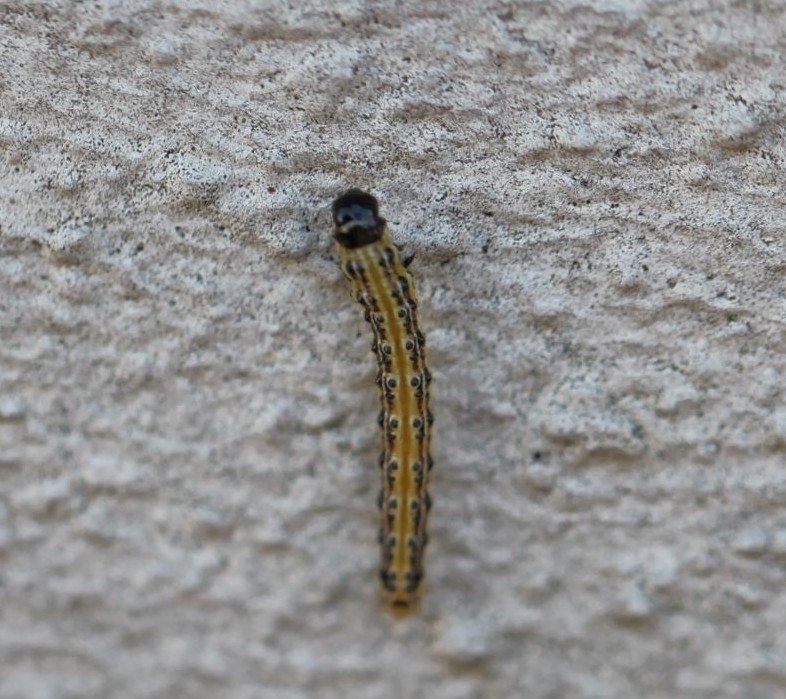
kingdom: Animalia
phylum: Arthropoda
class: Insecta
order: Lepidoptera
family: Crambidae
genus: Cydalima
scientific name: Cydalima perspectalis
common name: Box tree moth
